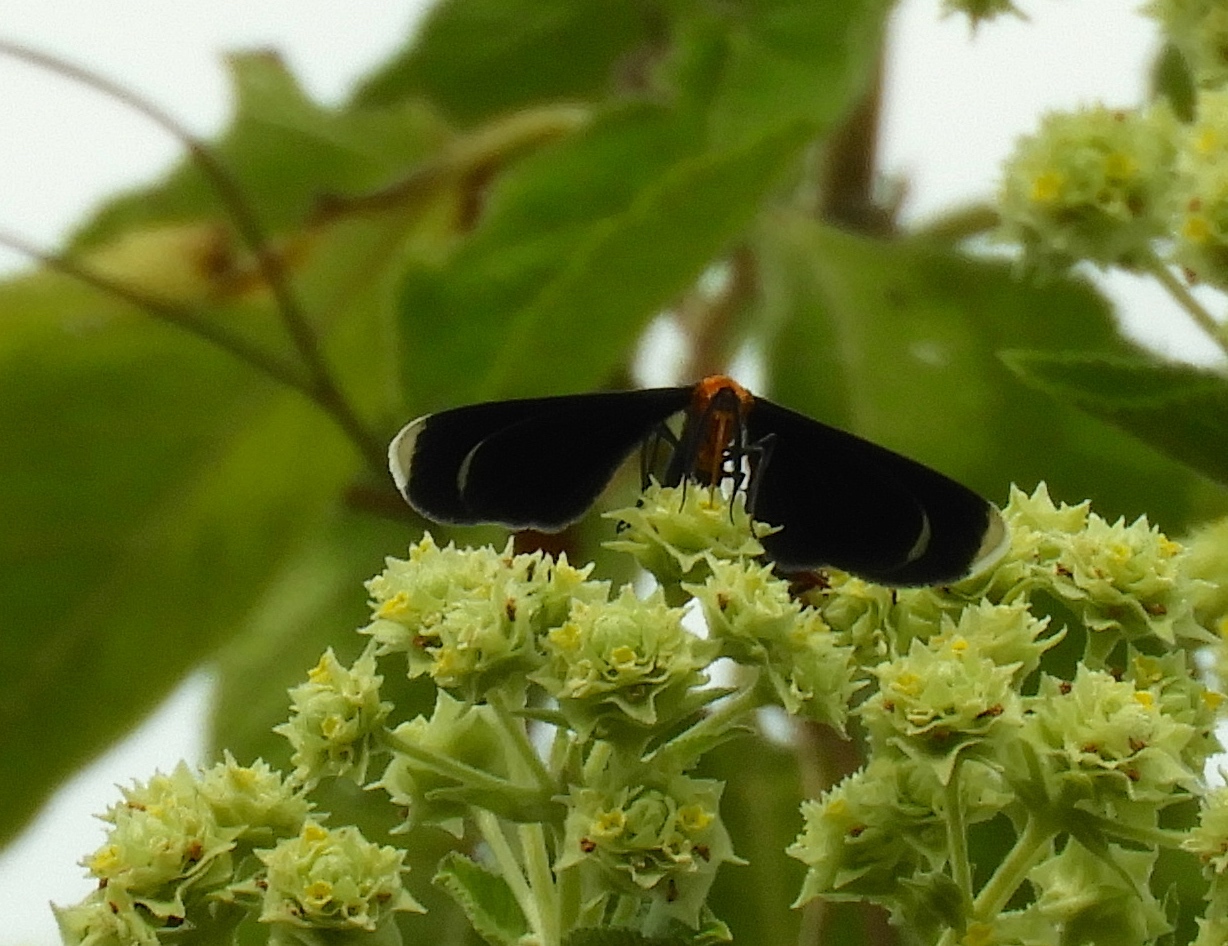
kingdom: Animalia
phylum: Arthropoda
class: Insecta
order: Lepidoptera
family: Geometridae
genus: Melanchroia
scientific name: Melanchroia chephise
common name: White-tipped black
